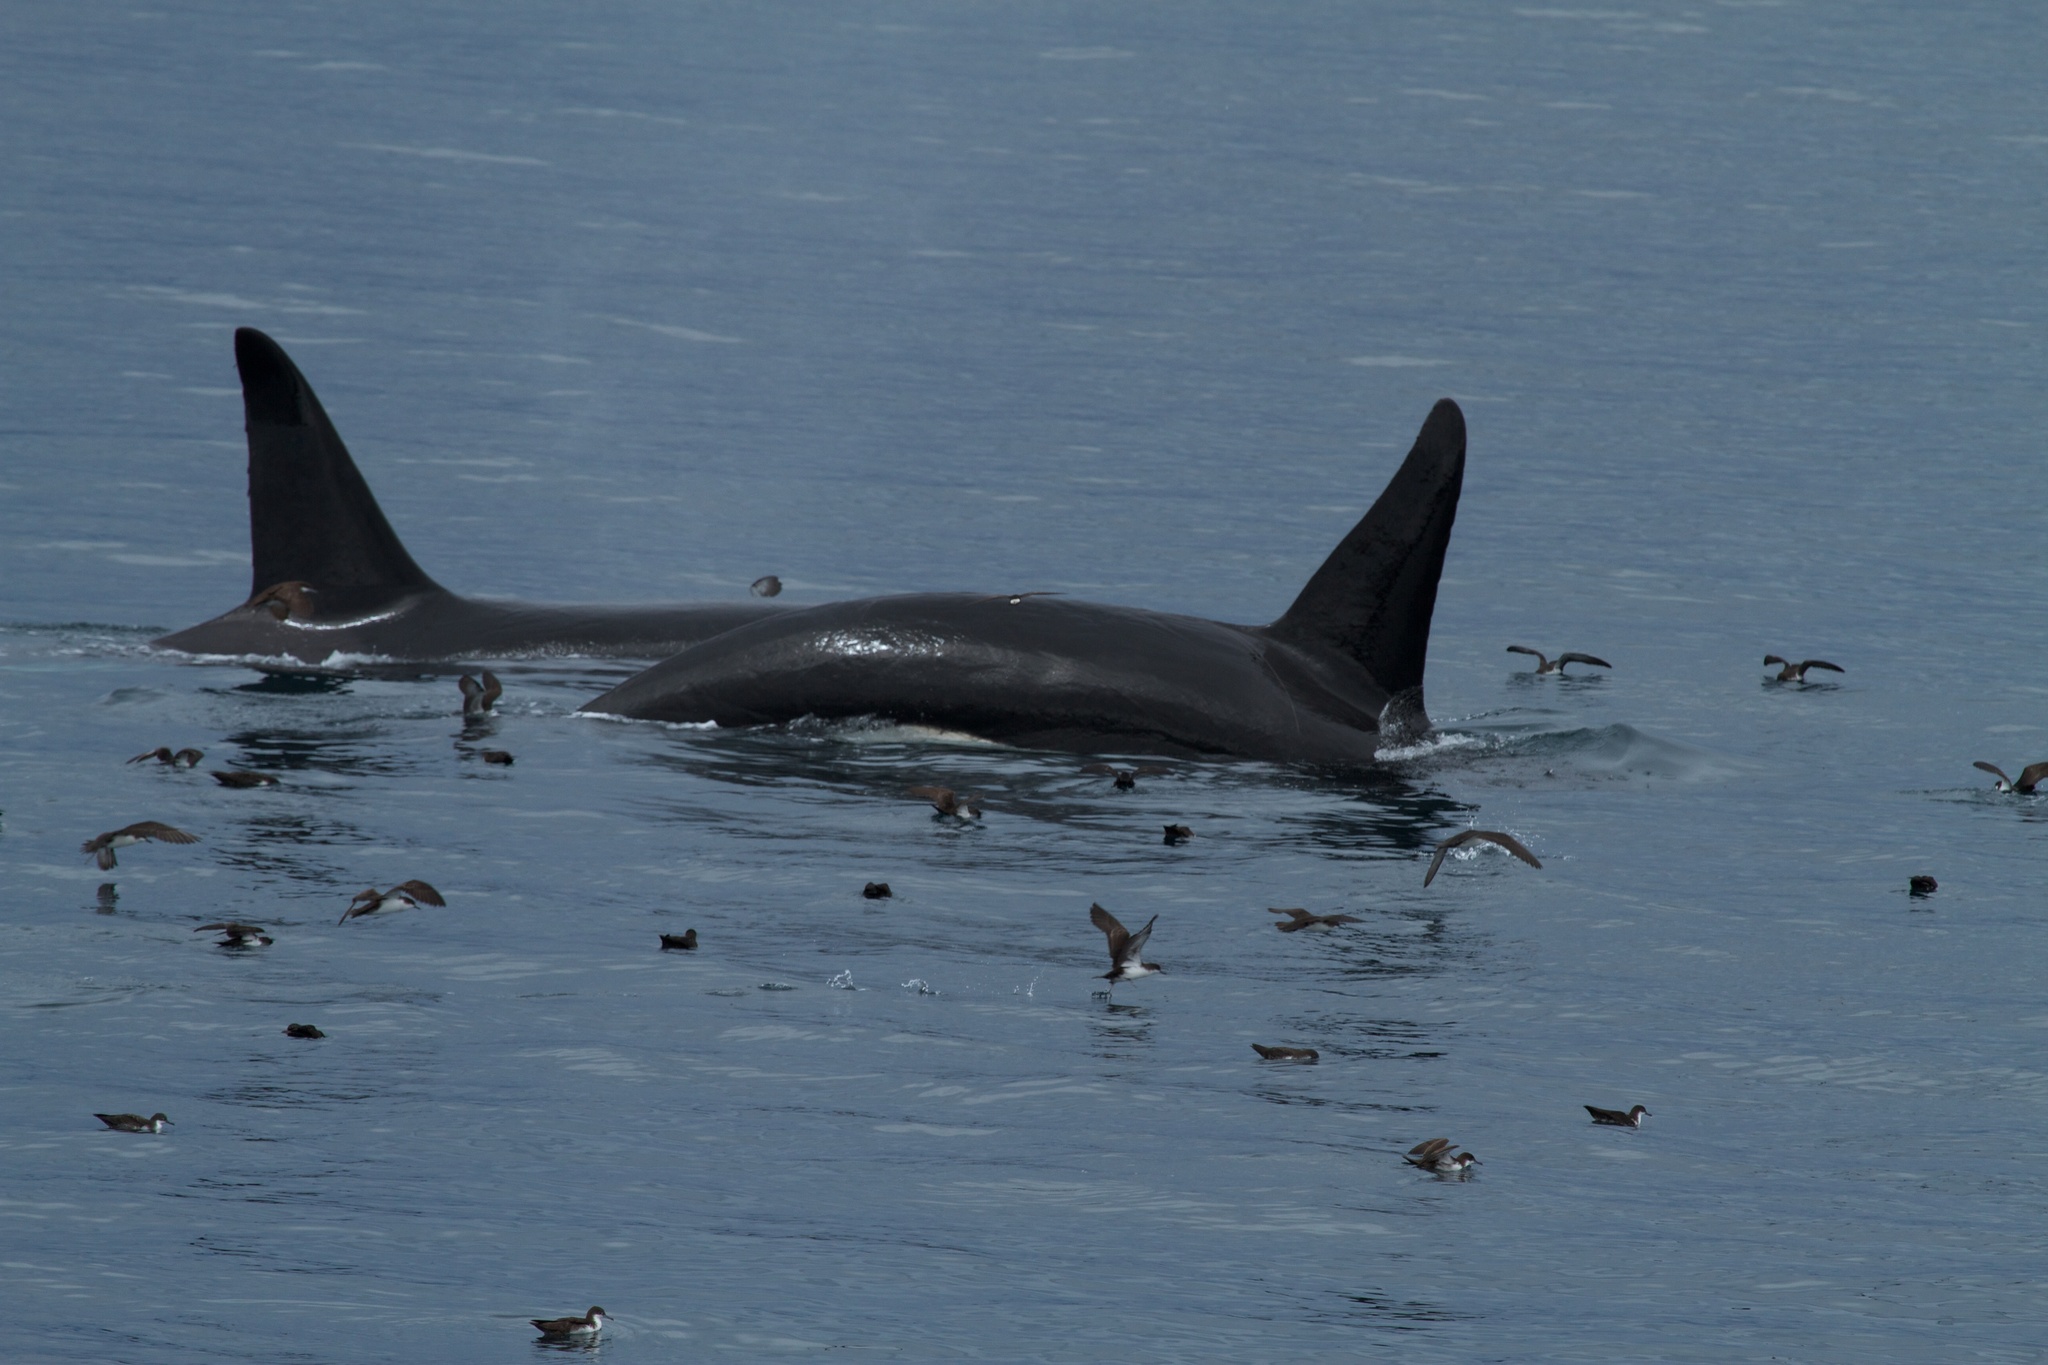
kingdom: Animalia
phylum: Chordata
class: Mammalia
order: Cetacea
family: Delphinidae
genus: Orcinus
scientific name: Orcinus orca
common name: Killer whale
